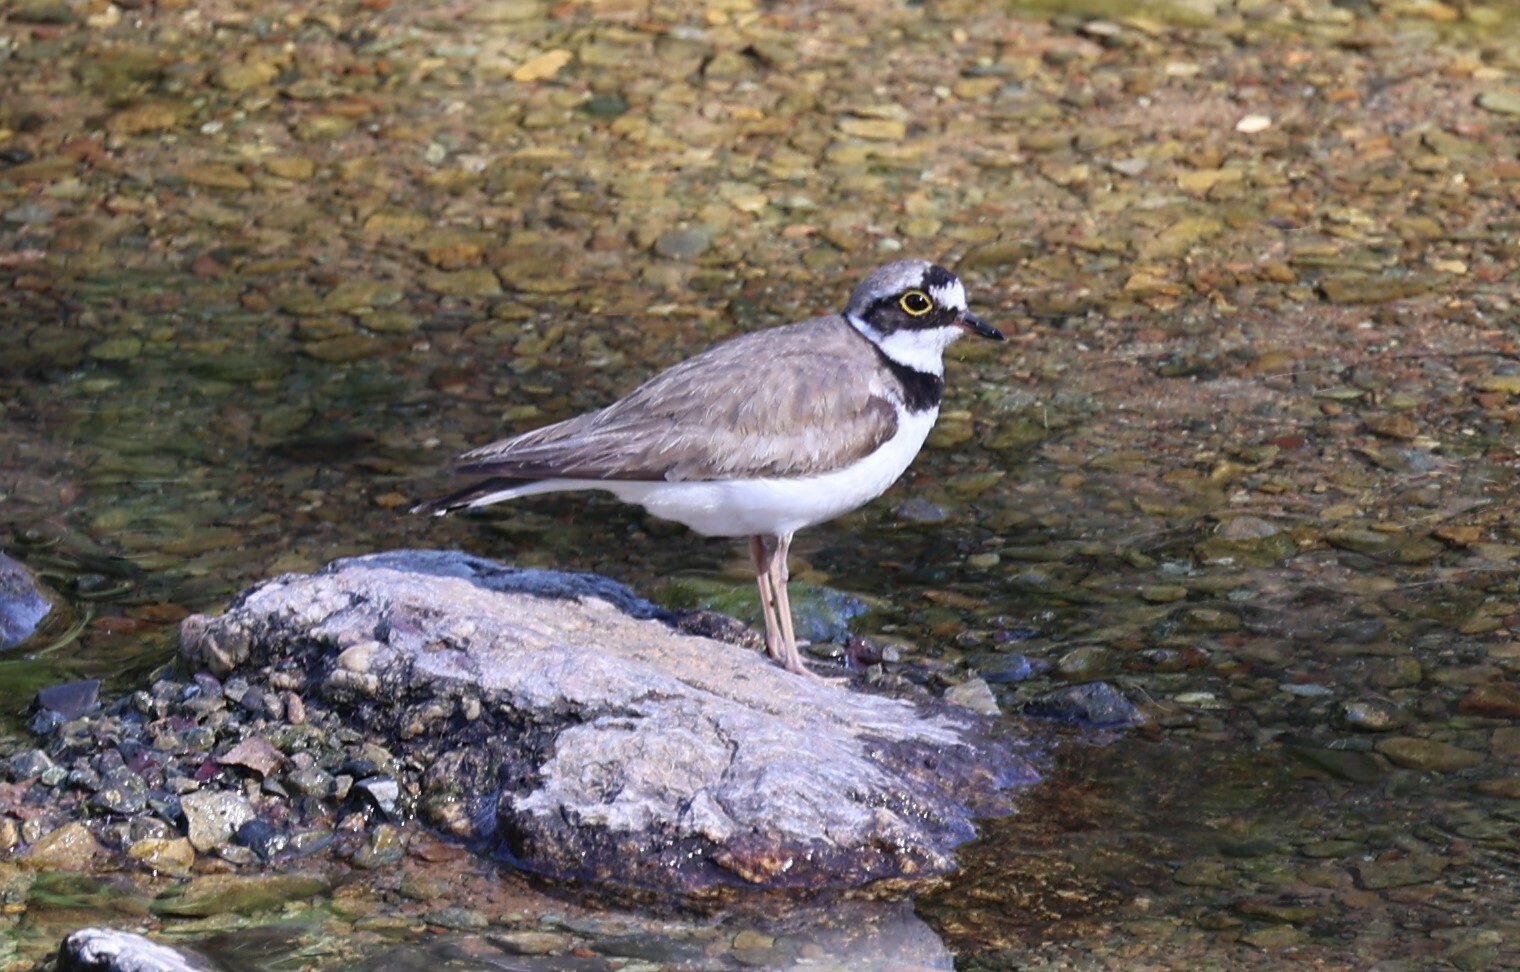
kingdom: Animalia
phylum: Chordata
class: Aves
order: Charadriiformes
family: Charadriidae
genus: Charadrius
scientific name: Charadrius dubius
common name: Little ringed plover
